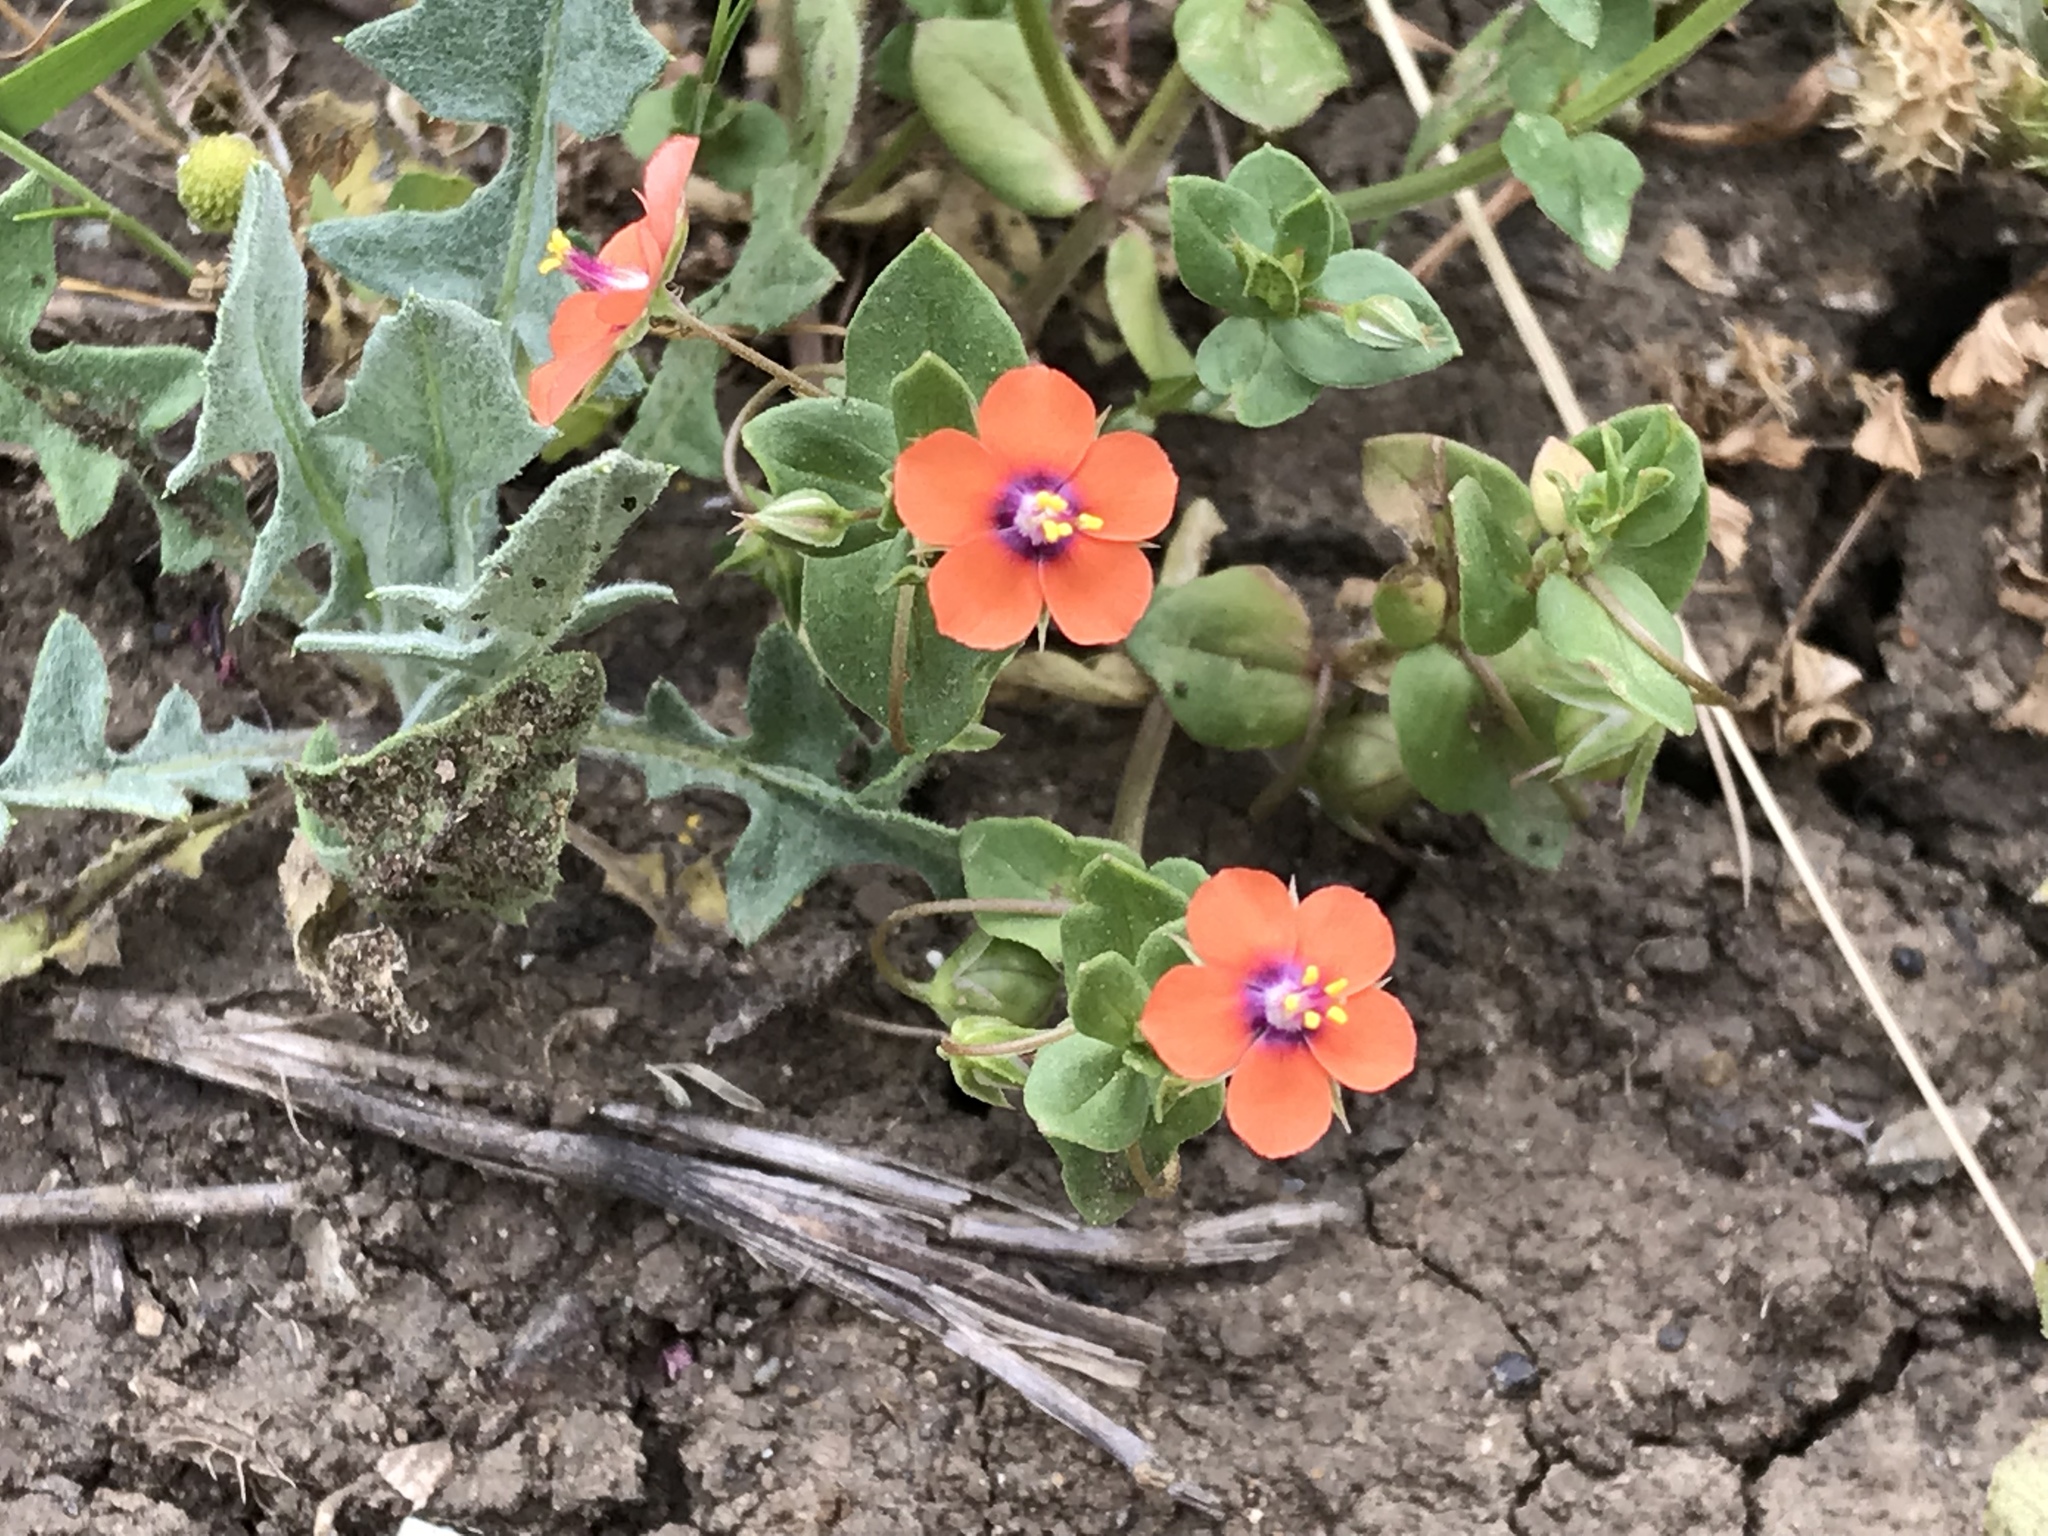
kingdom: Plantae
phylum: Tracheophyta
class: Magnoliopsida
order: Ericales
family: Primulaceae
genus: Lysimachia
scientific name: Lysimachia arvensis
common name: Scarlet pimpernel
